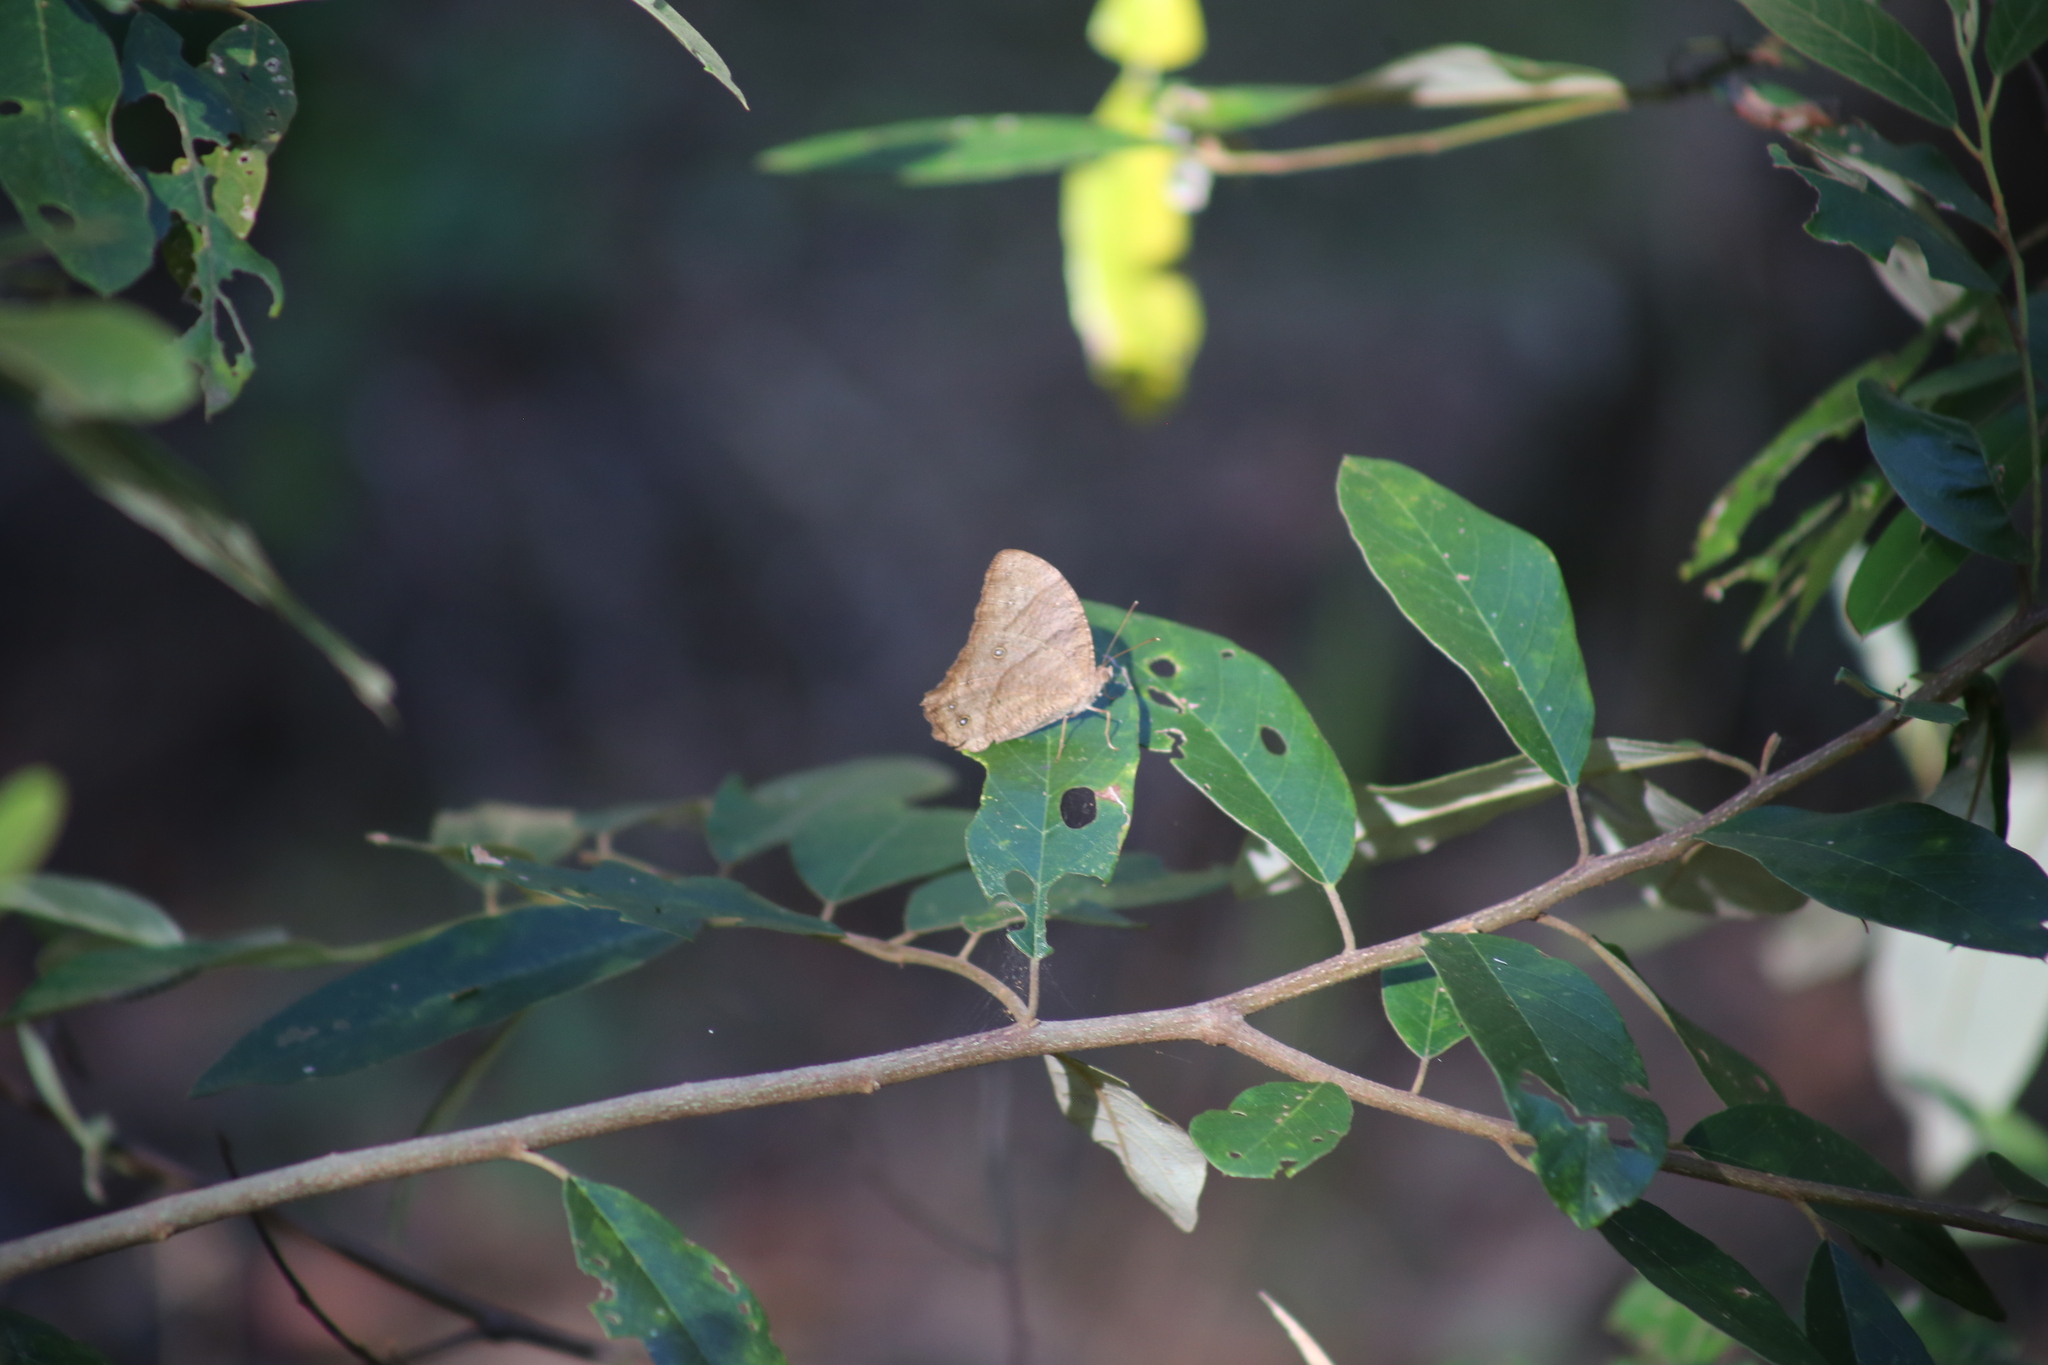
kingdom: Animalia
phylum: Arthropoda
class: Insecta
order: Lepidoptera
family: Nymphalidae
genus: Melanitis
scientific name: Melanitis leda
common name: Twilight brown
